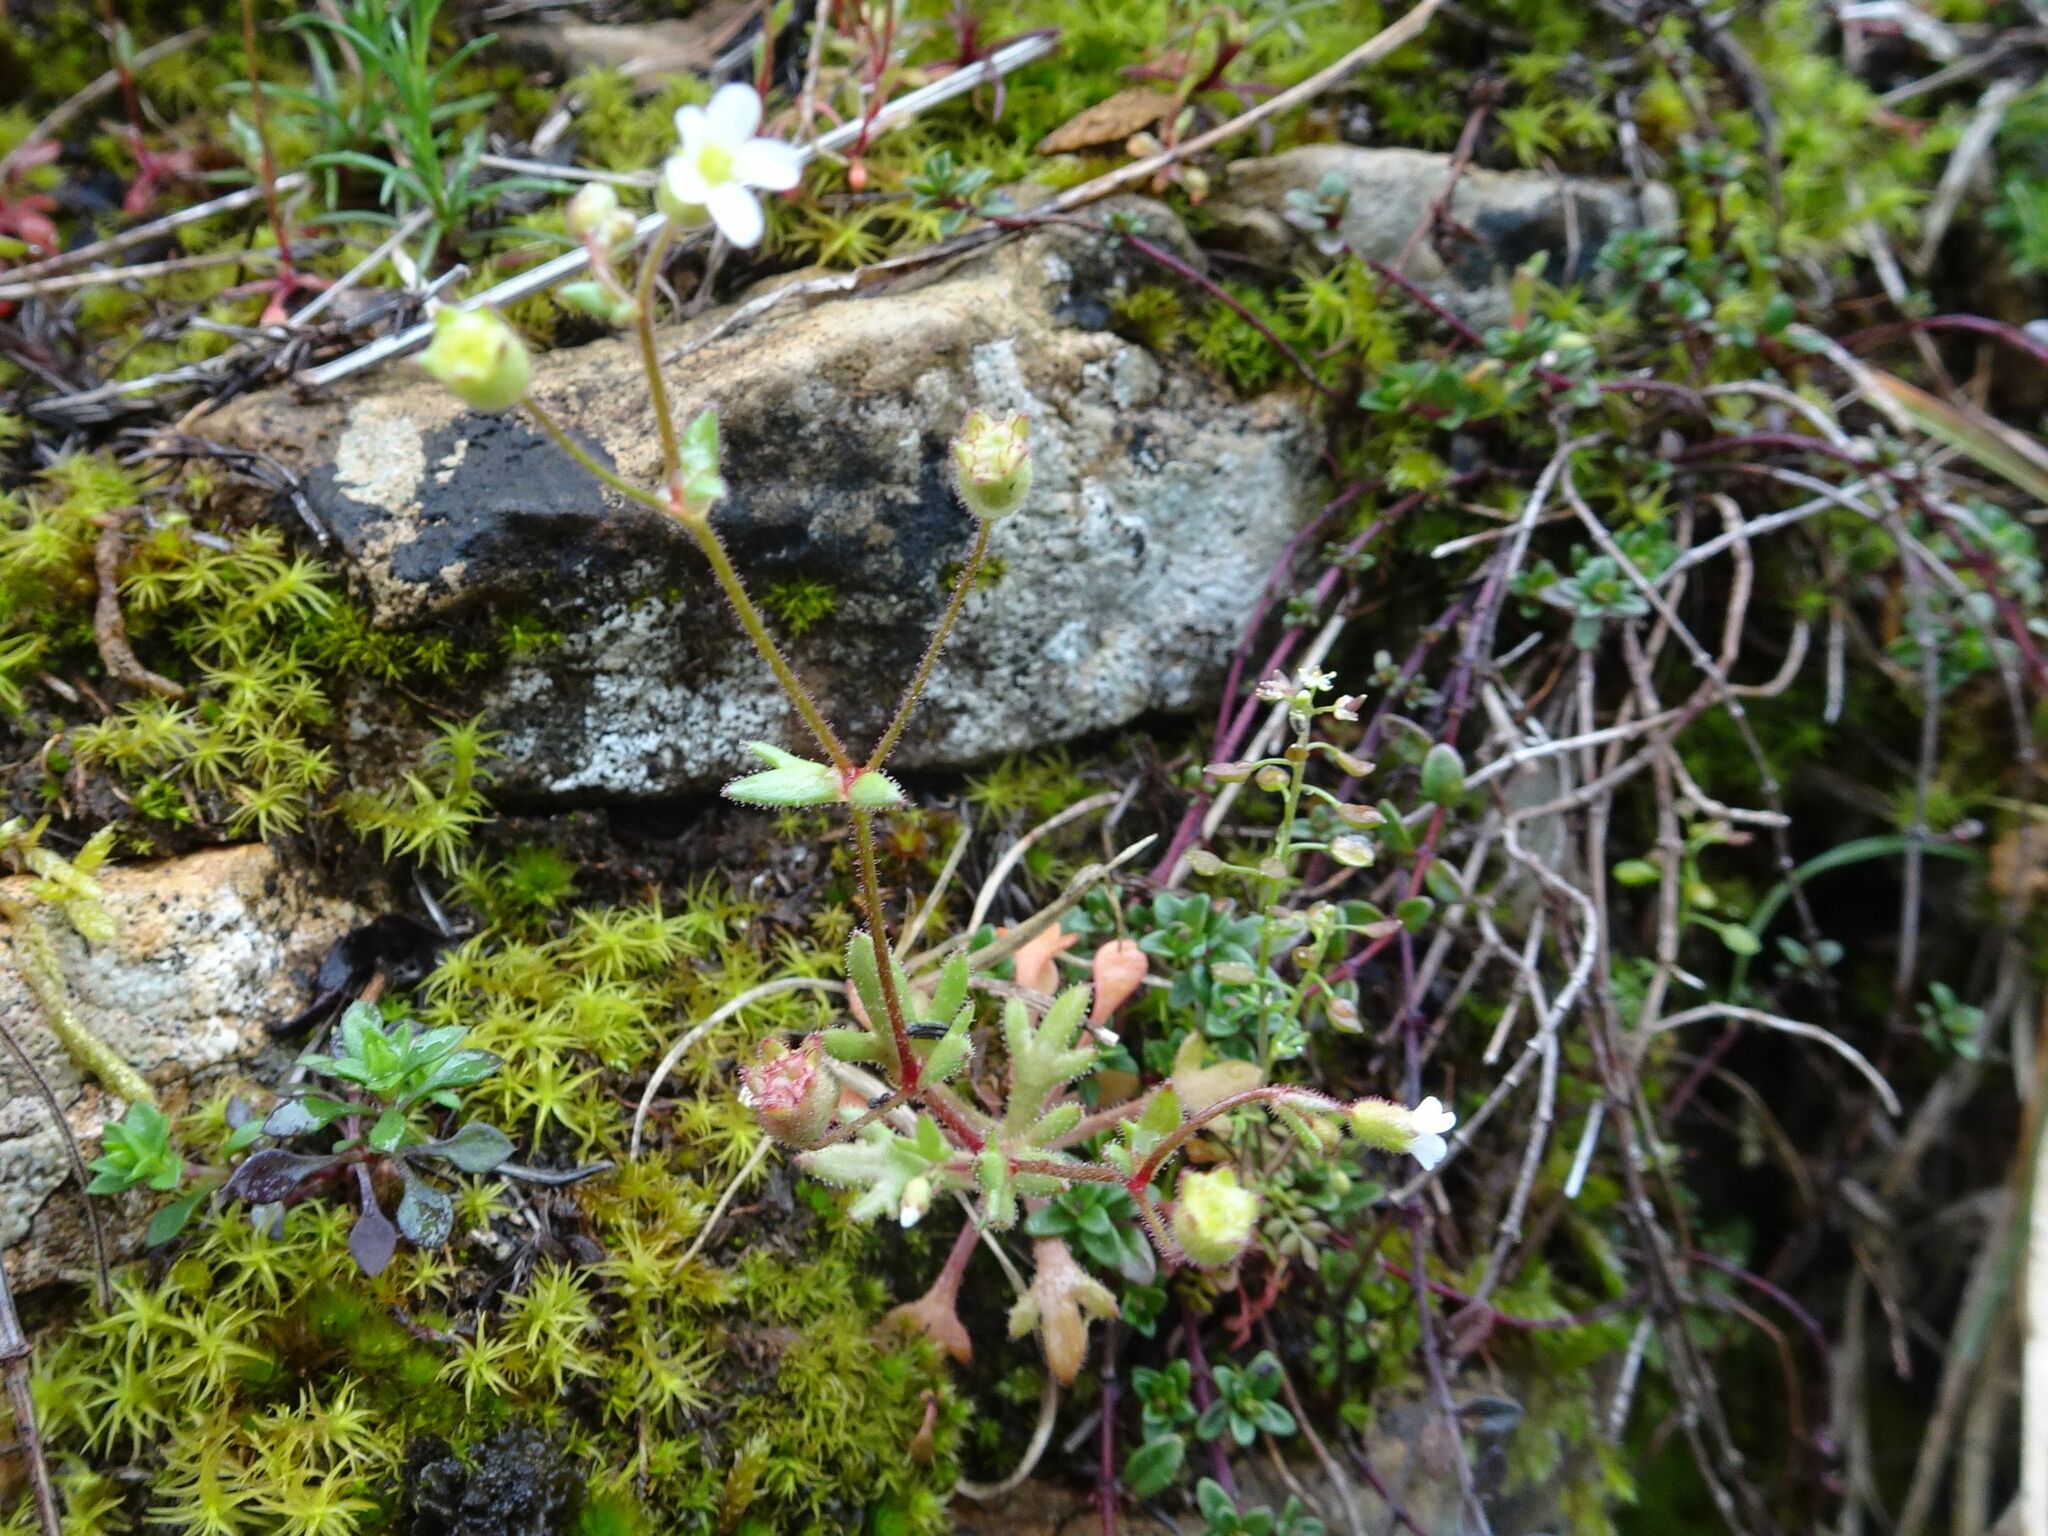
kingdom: Plantae
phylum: Tracheophyta
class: Magnoliopsida
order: Saxifragales
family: Saxifragaceae
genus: Saxifraga
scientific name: Saxifraga tridactylites
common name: Rue-leaved saxifrage
